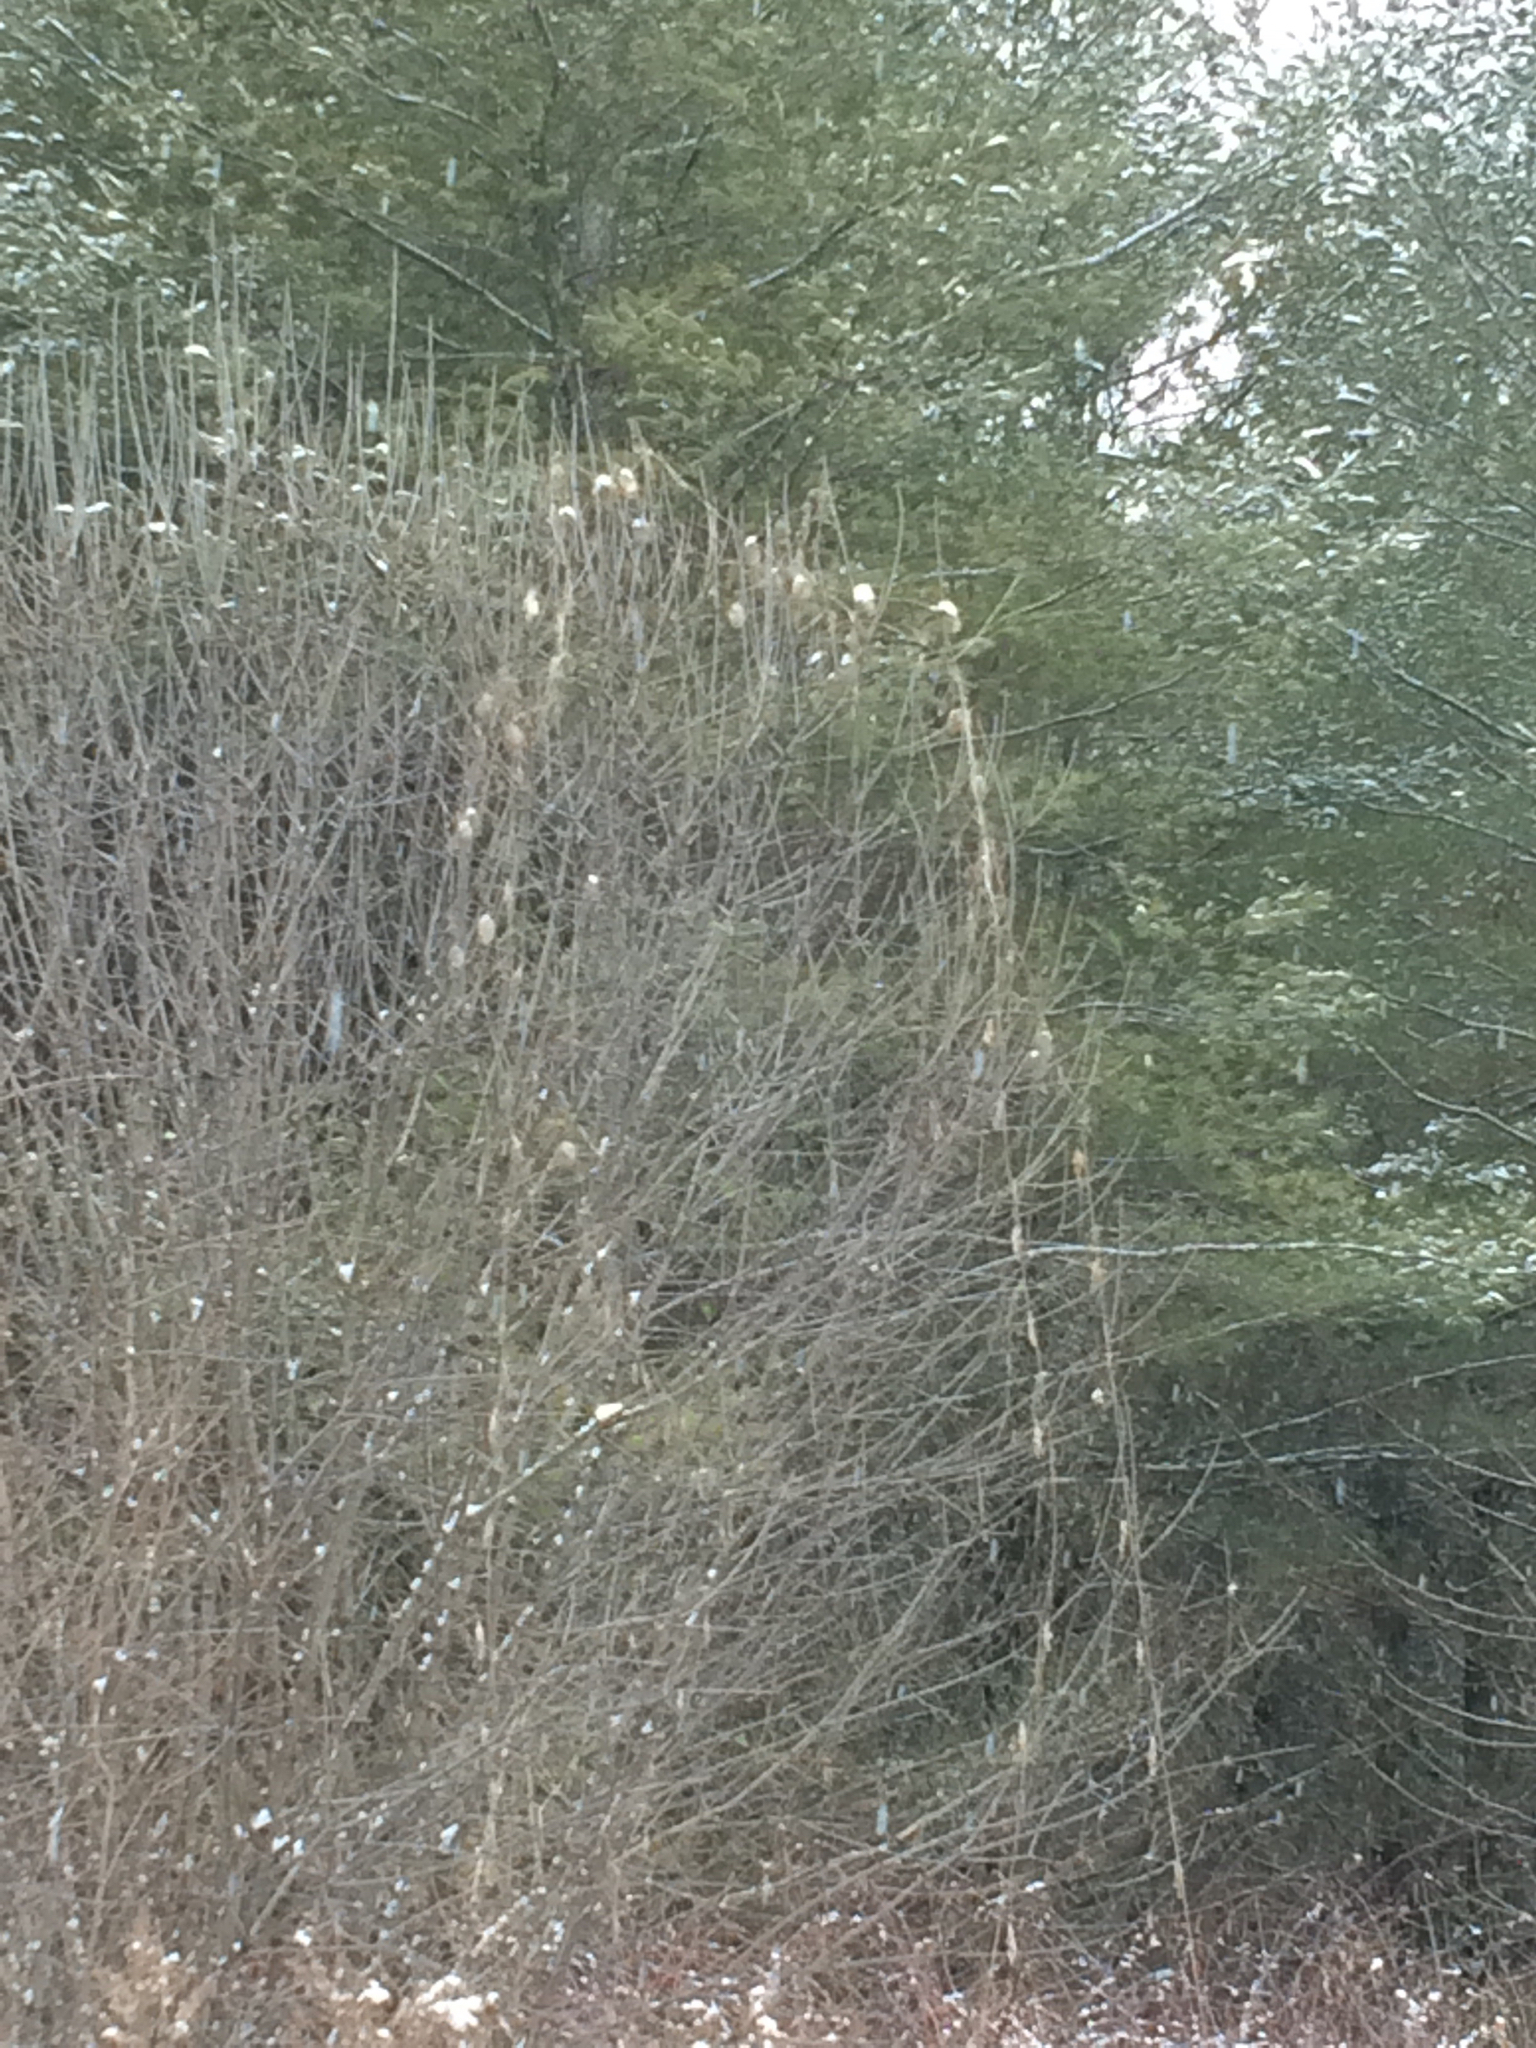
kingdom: Plantae
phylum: Tracheophyta
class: Magnoliopsida
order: Cucurbitales
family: Cucurbitaceae
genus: Echinocystis
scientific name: Echinocystis lobata
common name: Wild cucumber
